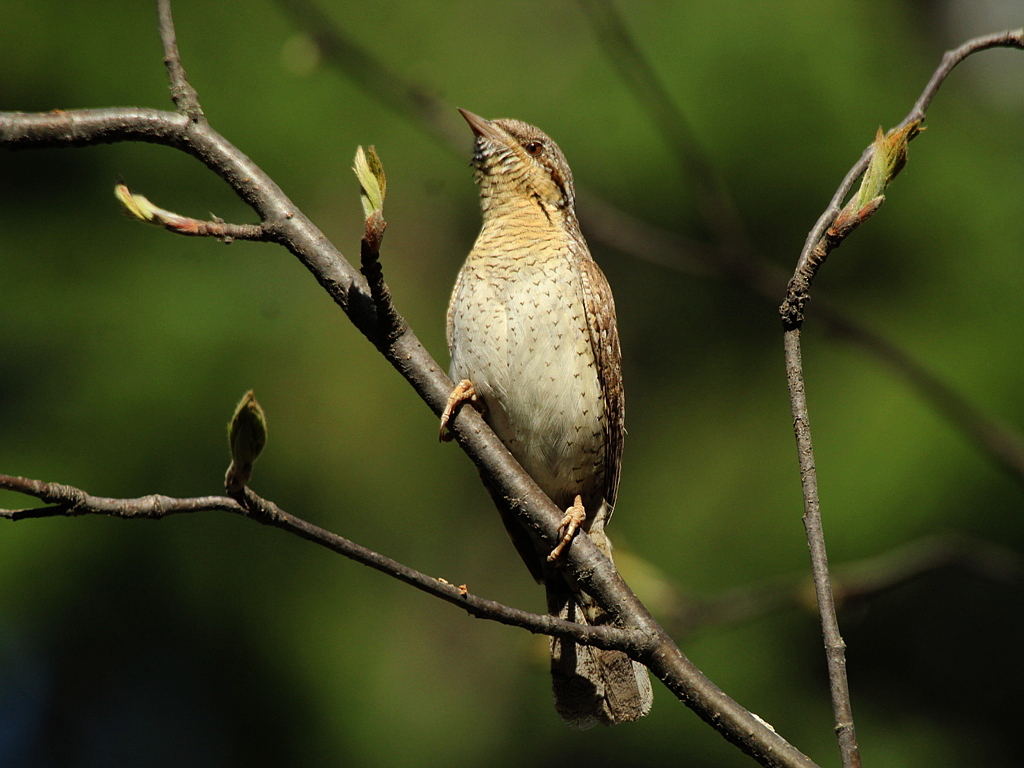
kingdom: Animalia
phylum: Chordata
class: Aves
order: Piciformes
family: Picidae
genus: Jynx
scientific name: Jynx torquilla
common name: Eurasian wryneck
